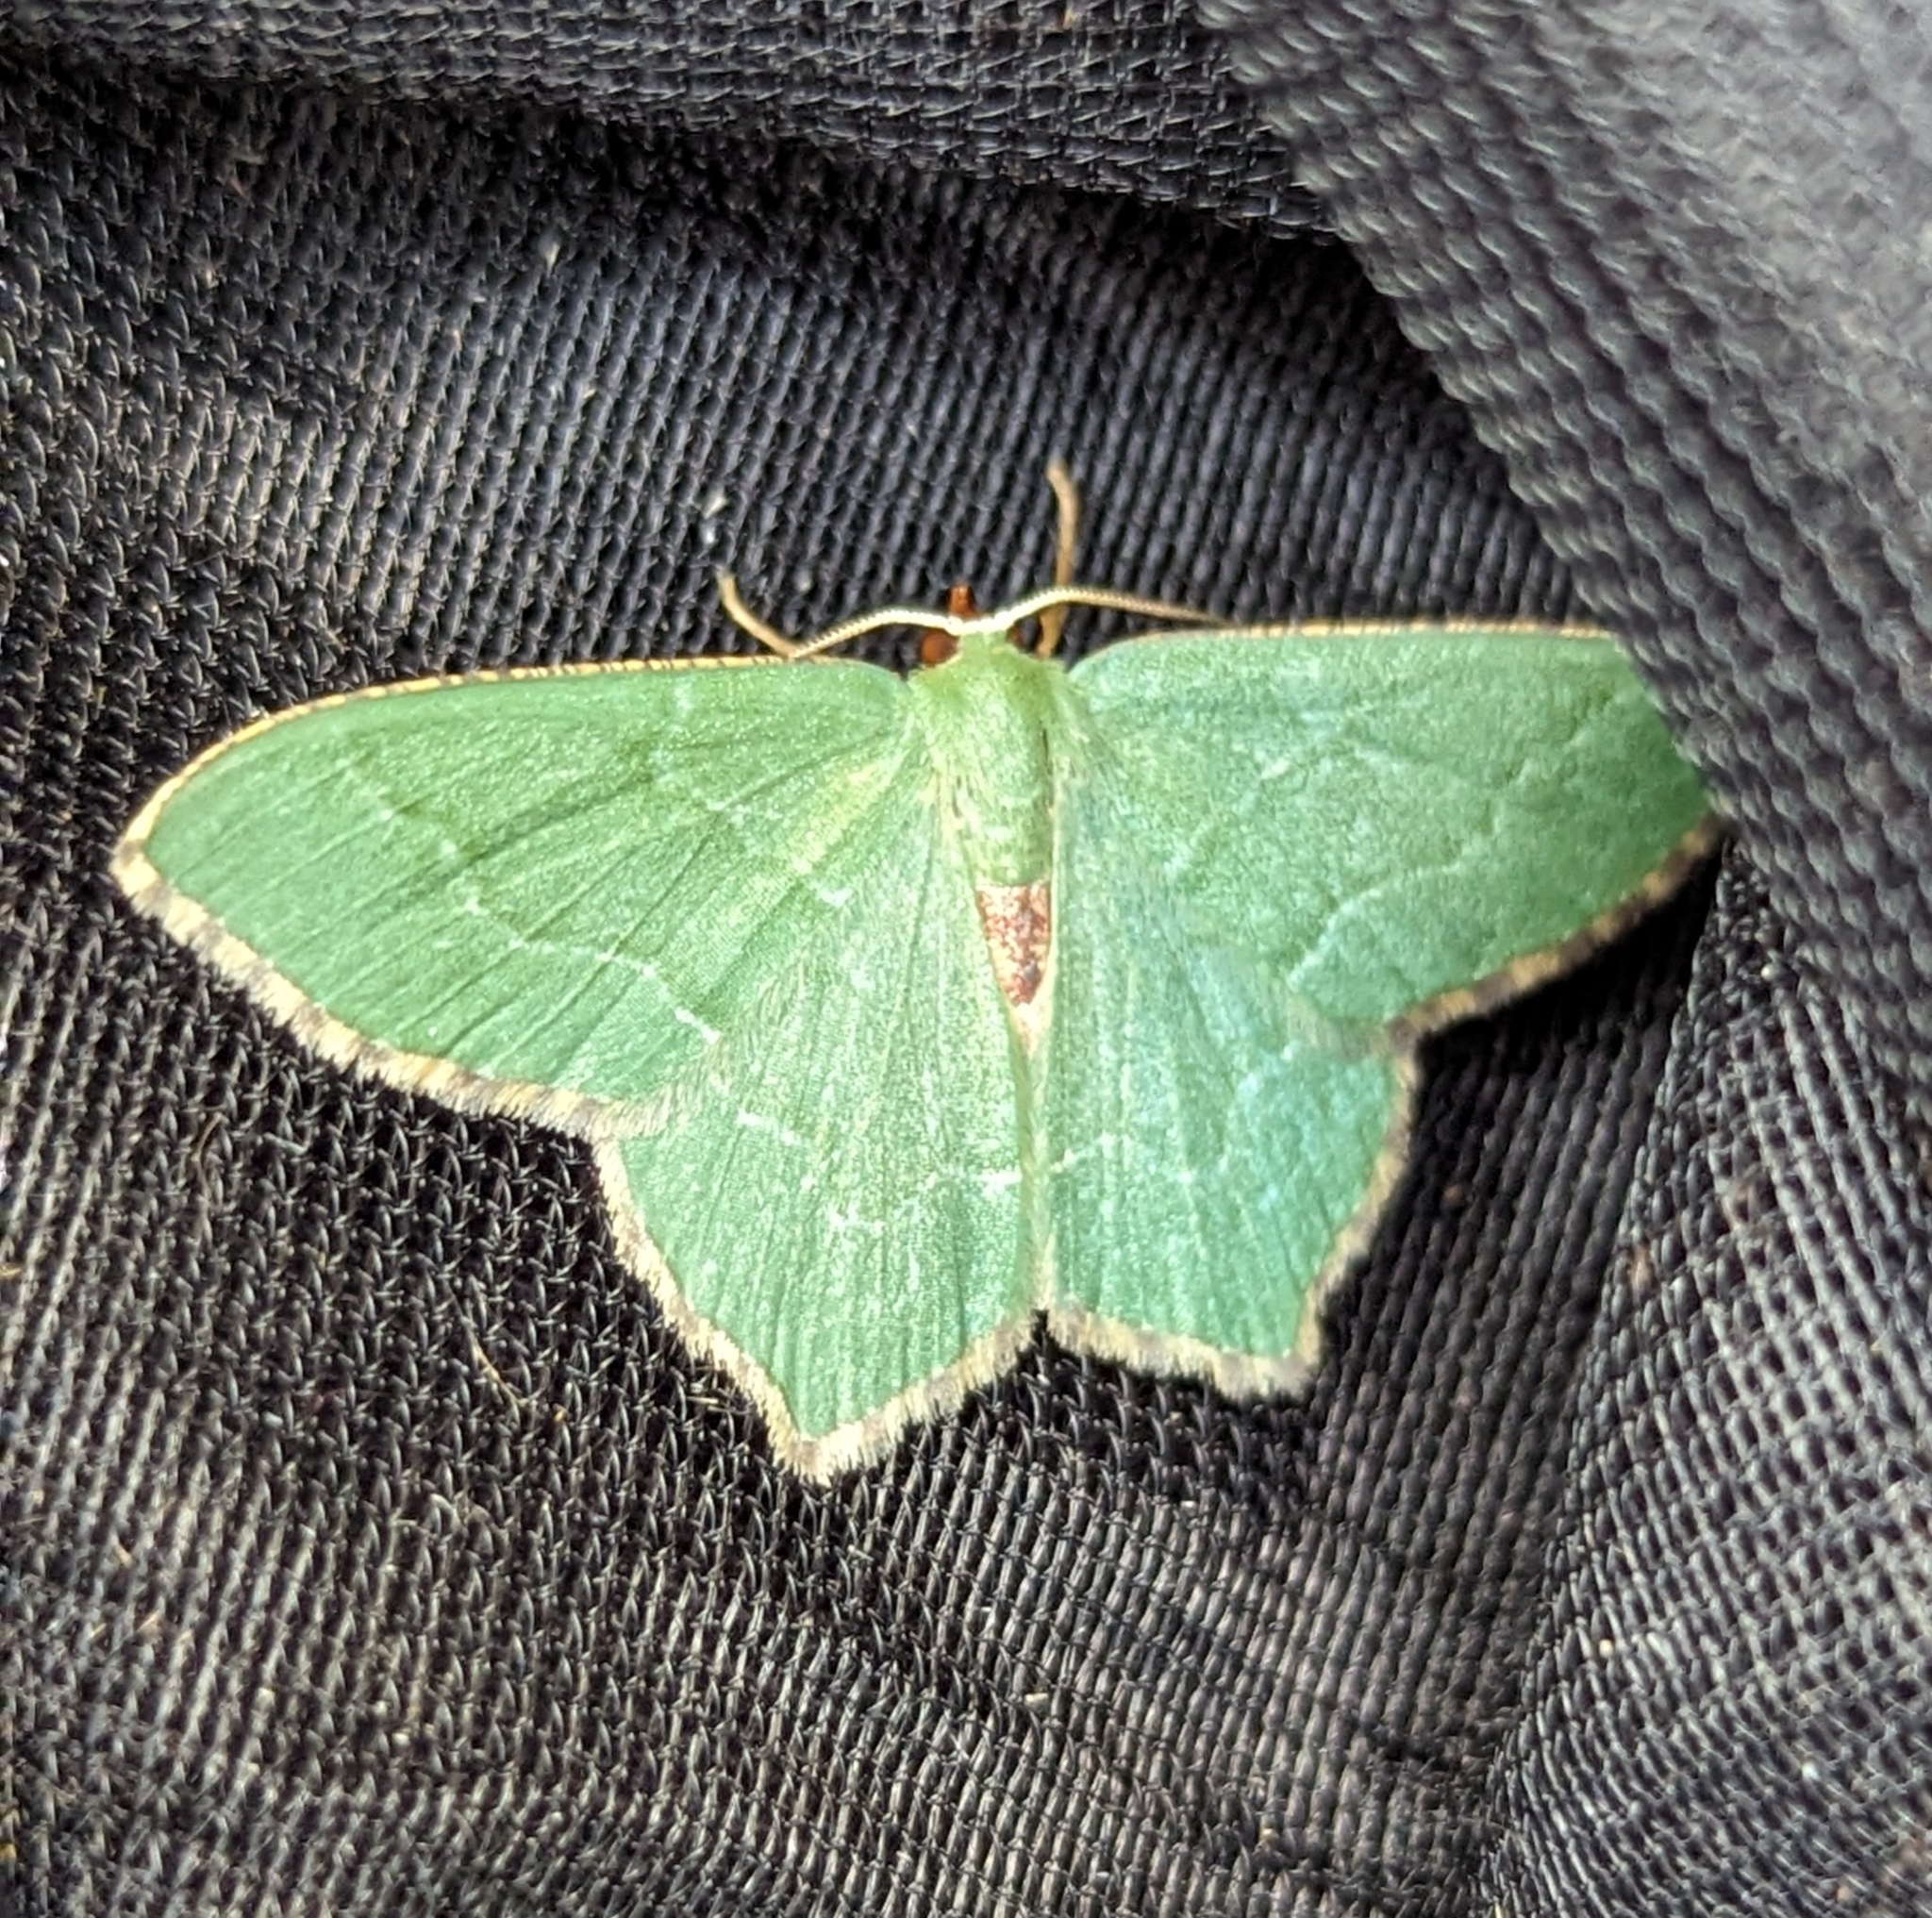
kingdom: Animalia
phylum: Arthropoda
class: Insecta
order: Lepidoptera
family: Geometridae
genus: Hemithea
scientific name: Hemithea aestivaria
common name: Common emerald
